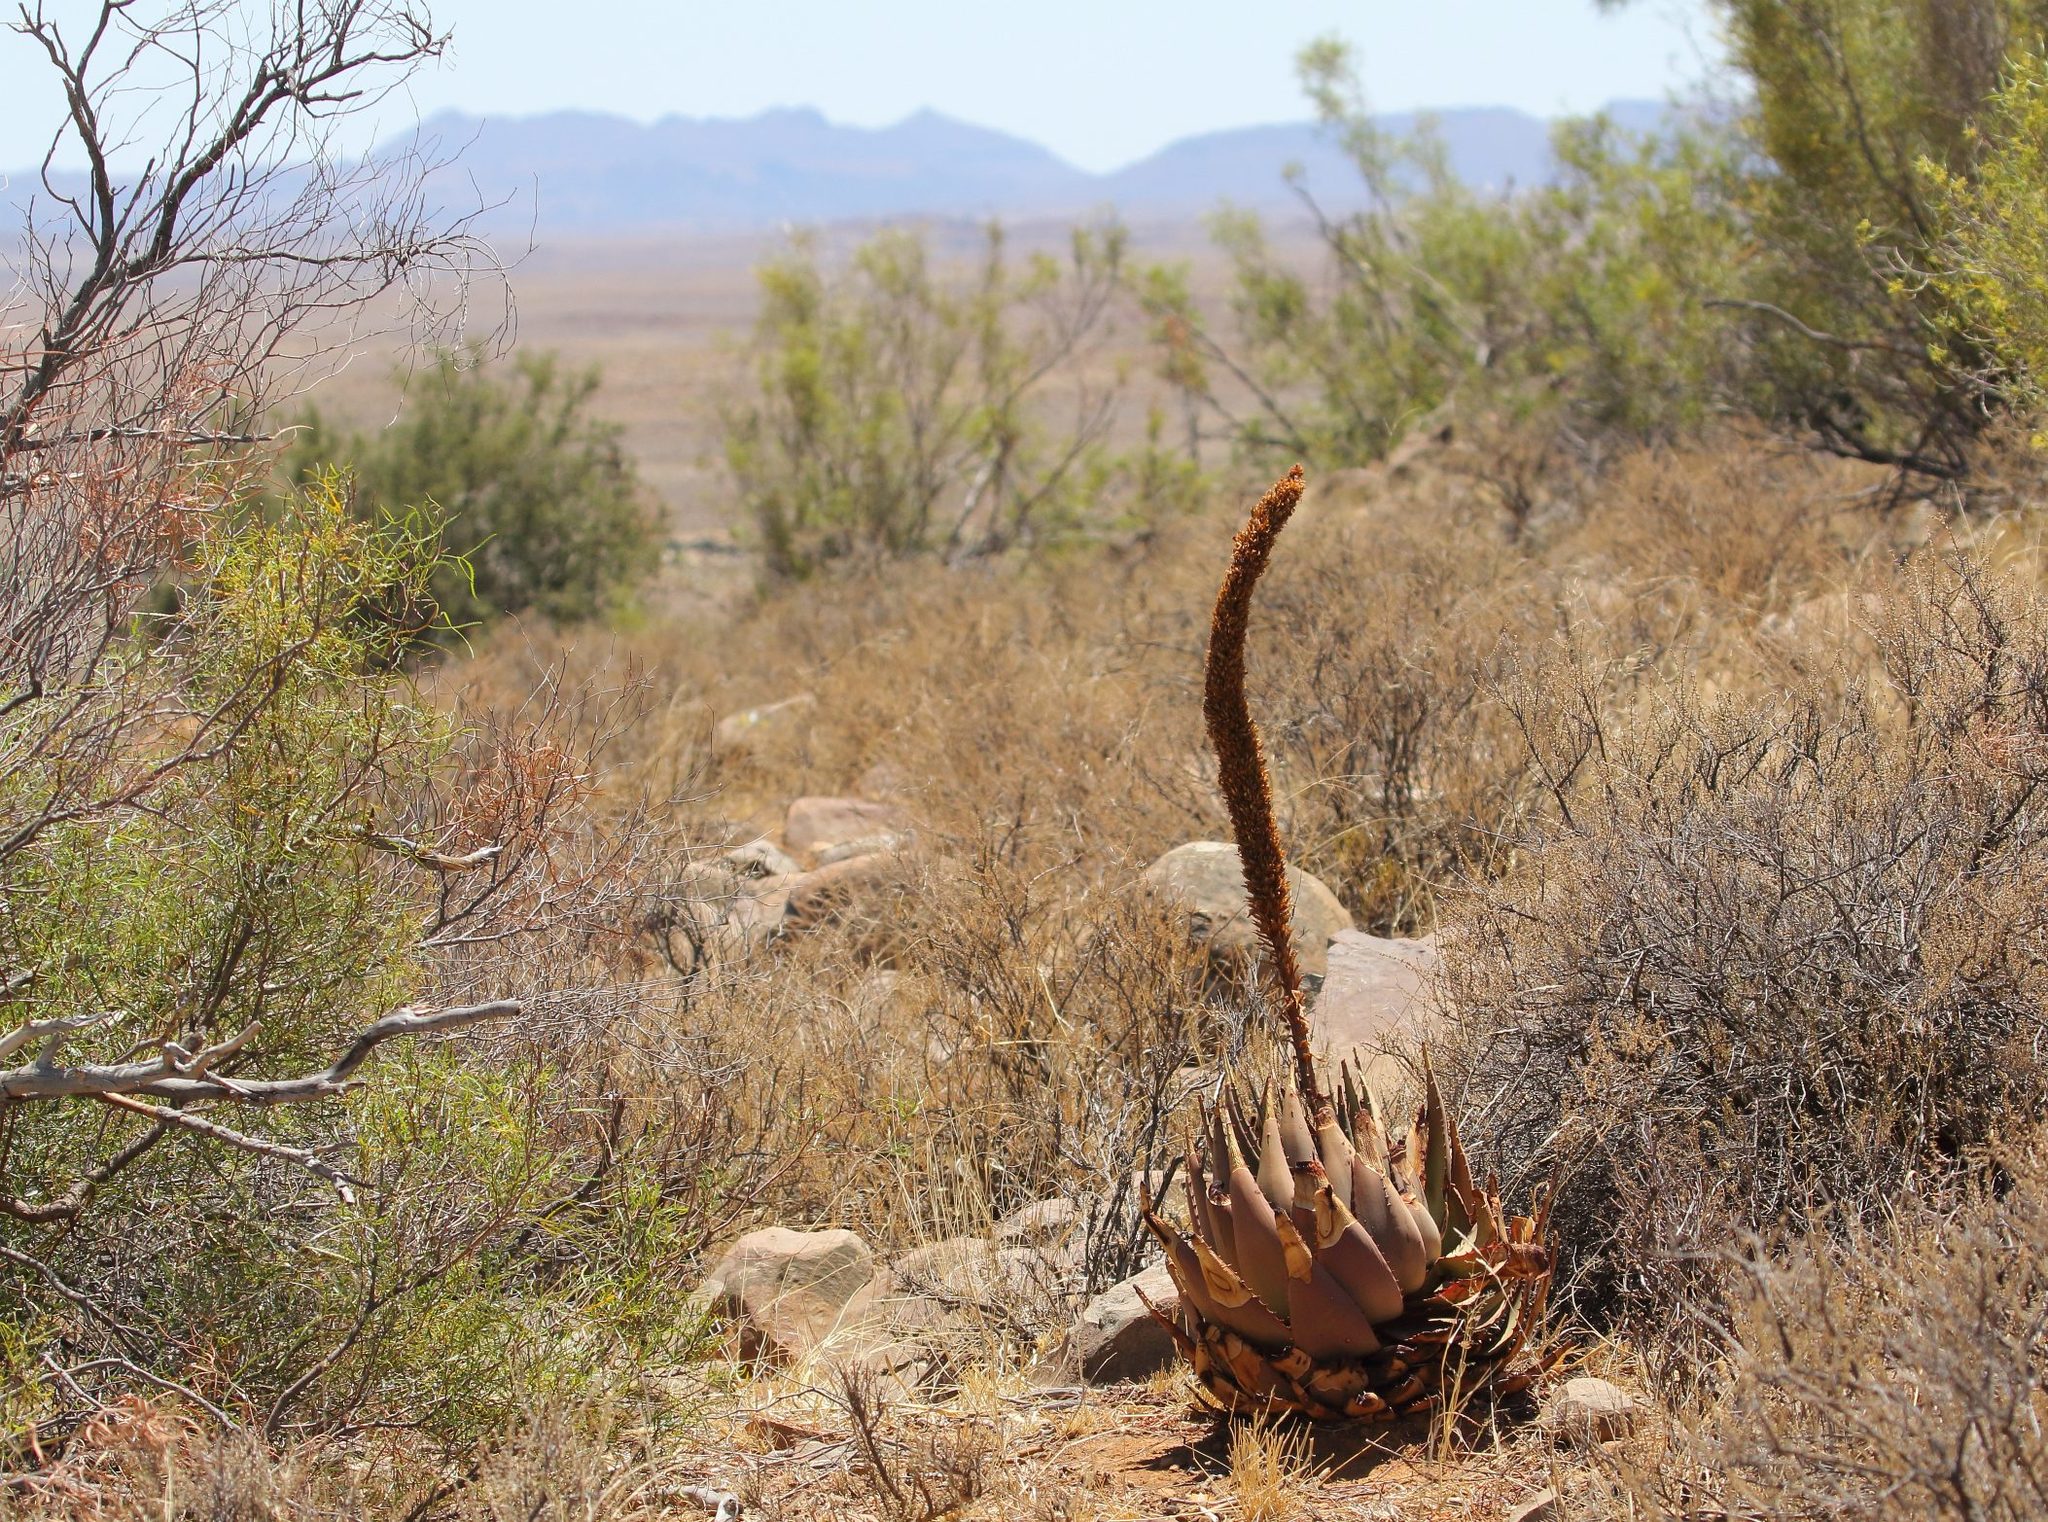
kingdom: Plantae
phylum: Tracheophyta
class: Liliopsida
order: Asparagales
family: Asphodelaceae
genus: Aloe
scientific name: Aloe broomii
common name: Berg alwyn
